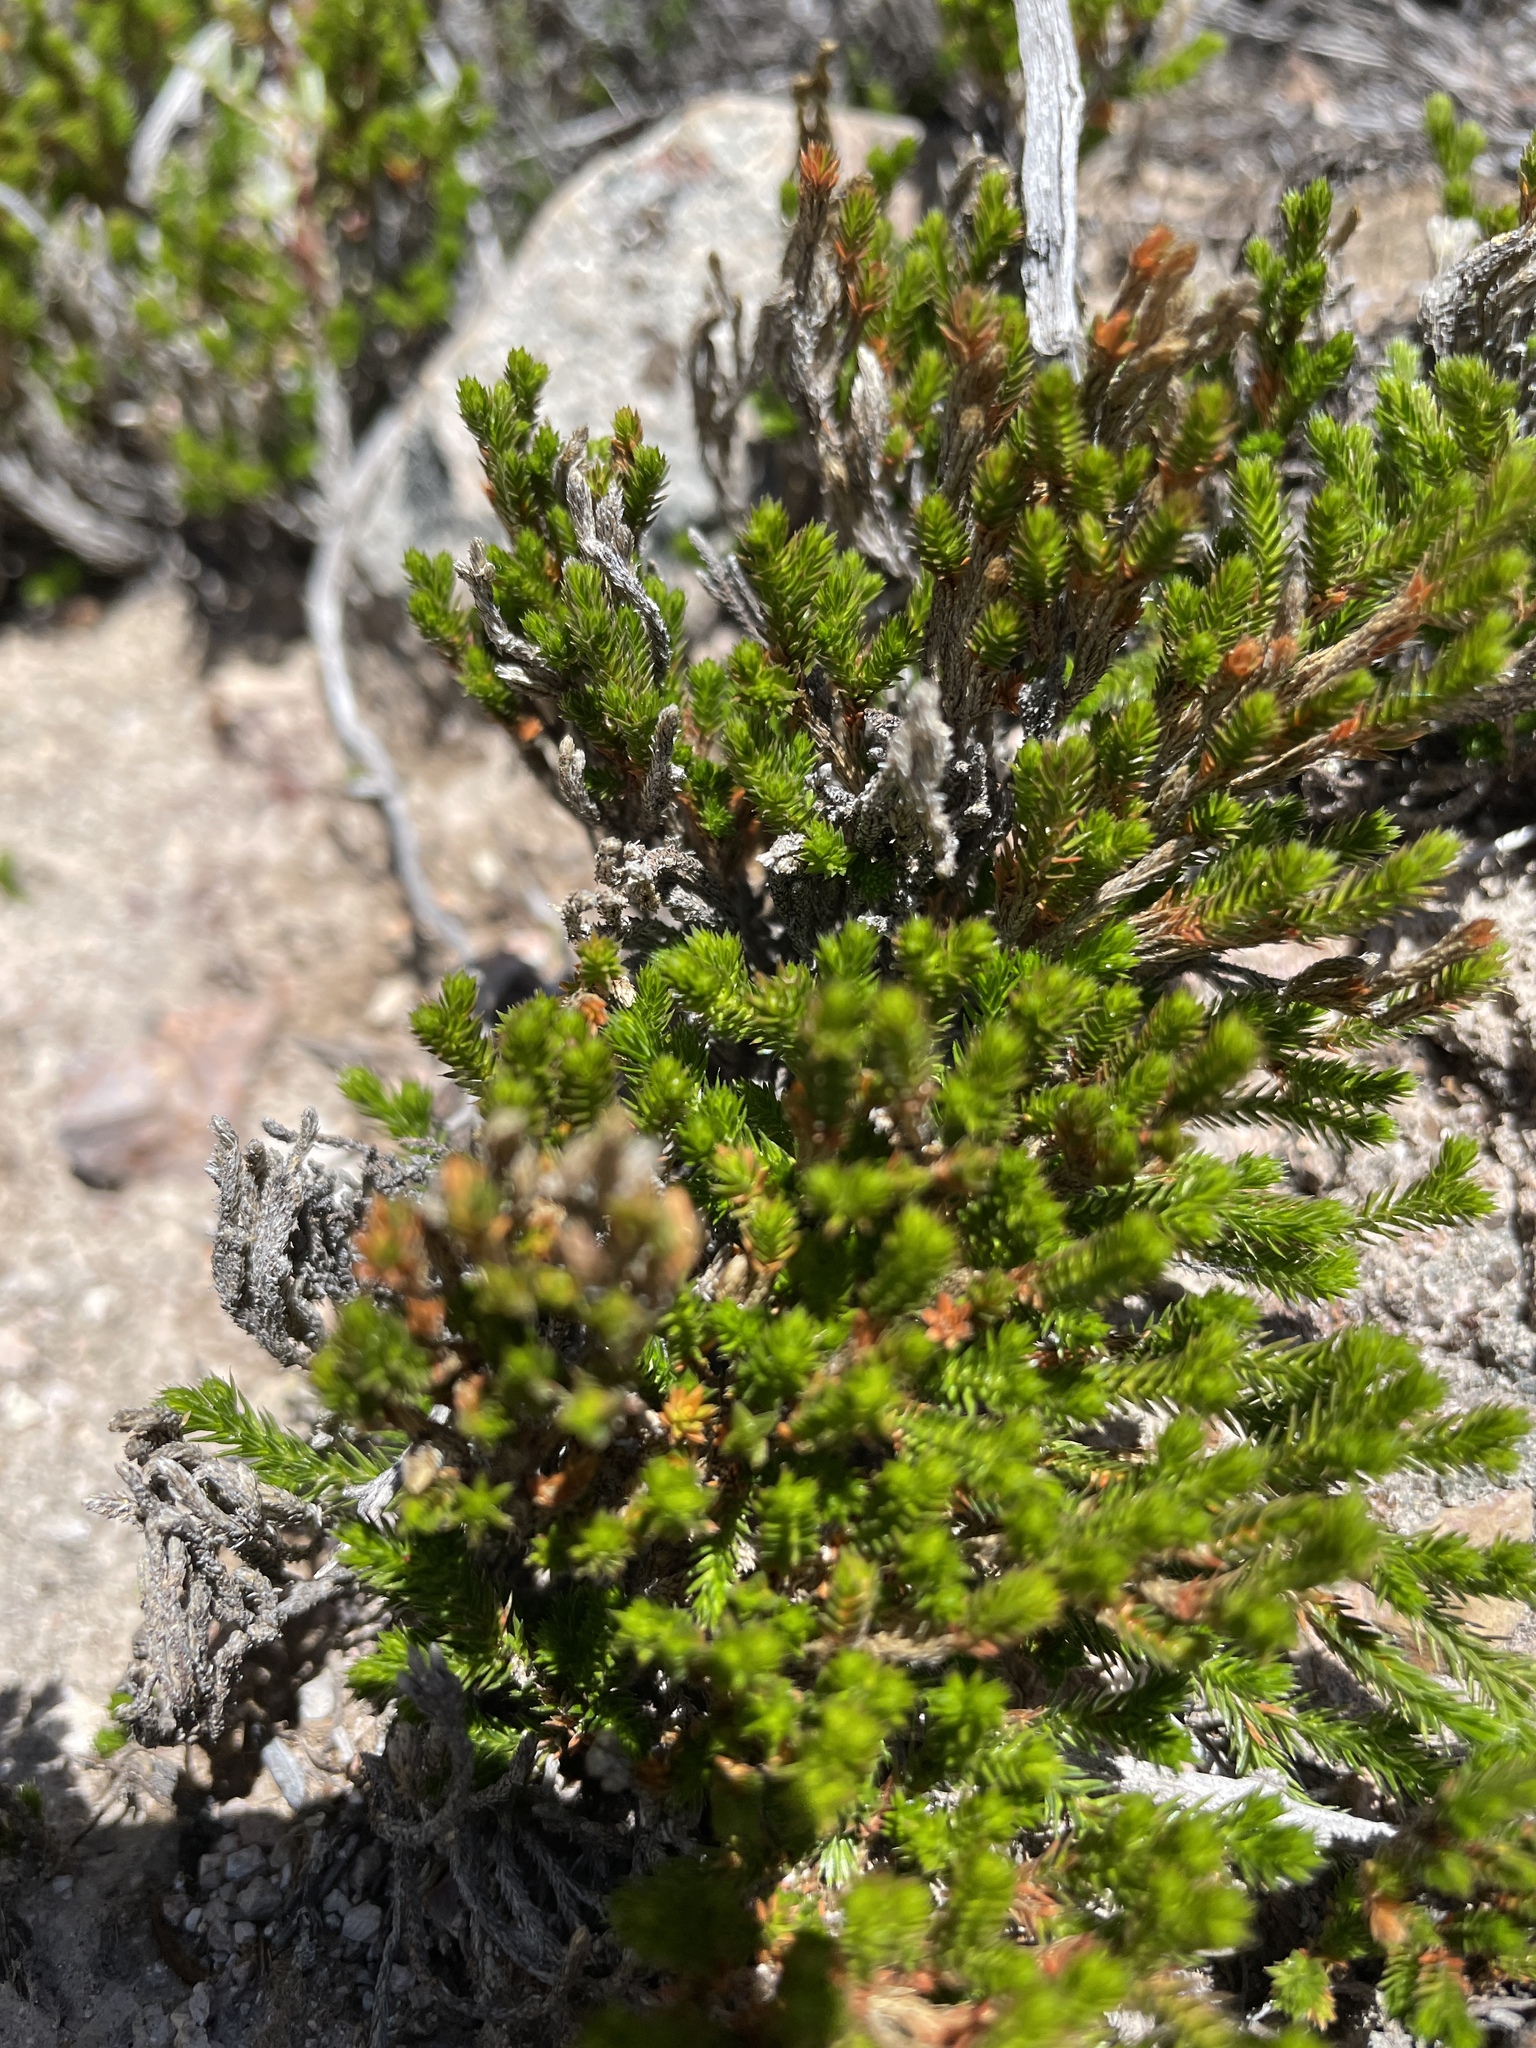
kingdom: Plantae
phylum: Tracheophyta
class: Lycopodiopsida
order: Selaginellales
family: Selaginellaceae
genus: Selaginella
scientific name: Selaginella bigelovii
